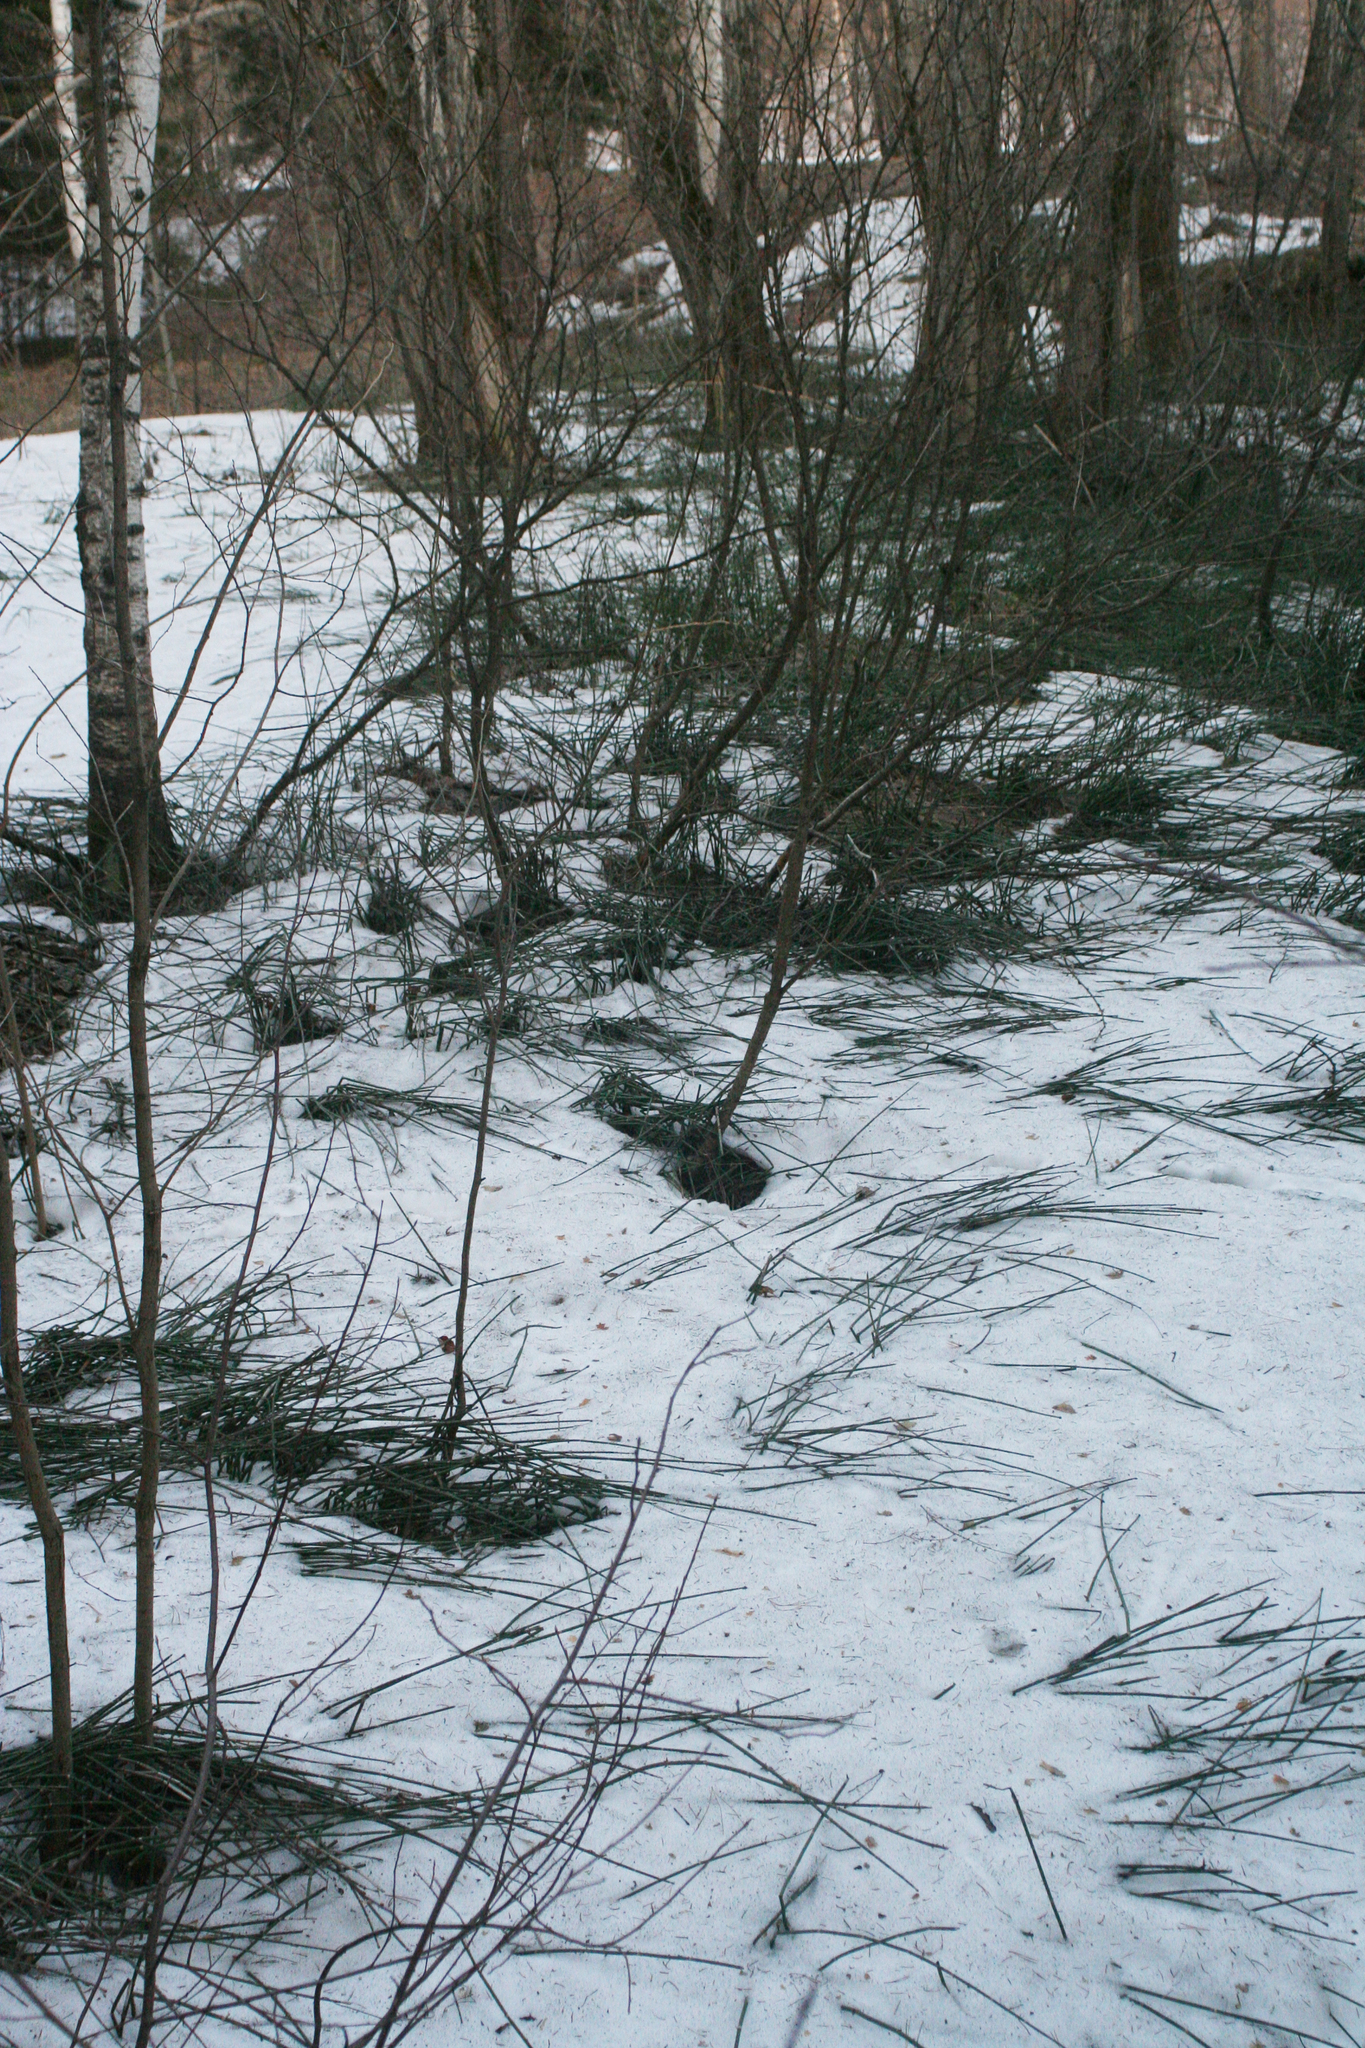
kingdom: Plantae
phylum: Tracheophyta
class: Polypodiopsida
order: Equisetales
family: Equisetaceae
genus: Equisetum
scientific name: Equisetum hyemale
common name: Rough horsetail
